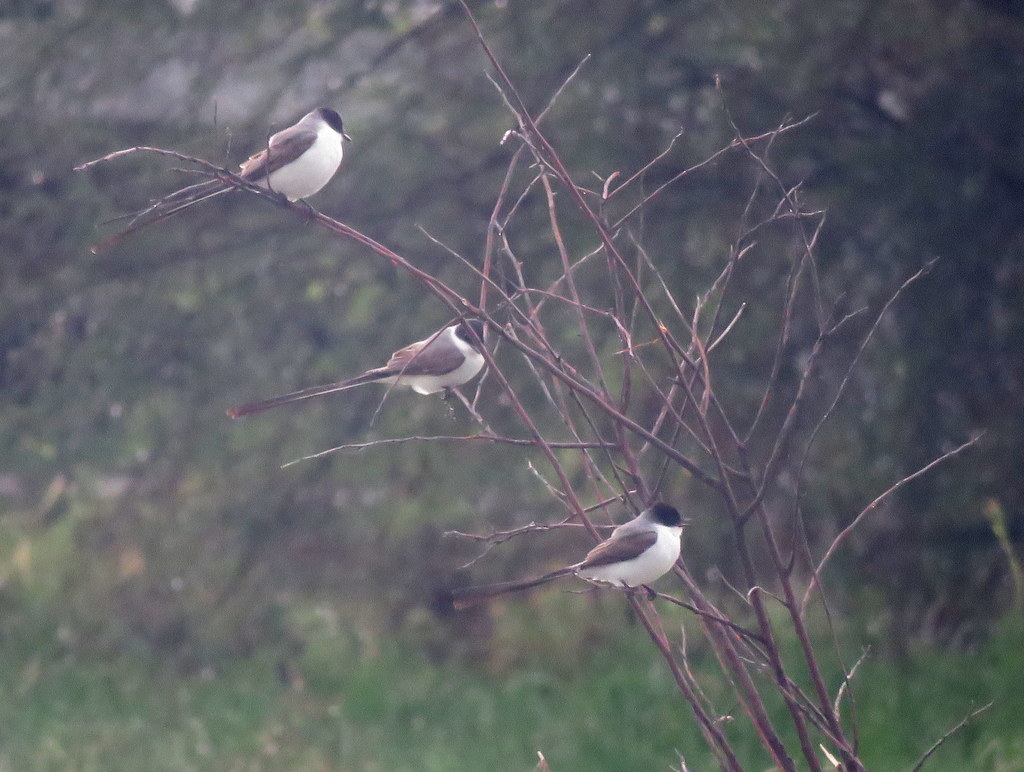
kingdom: Animalia
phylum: Chordata
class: Aves
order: Passeriformes
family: Tyrannidae
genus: Tyrannus
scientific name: Tyrannus savana
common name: Fork-tailed flycatcher
